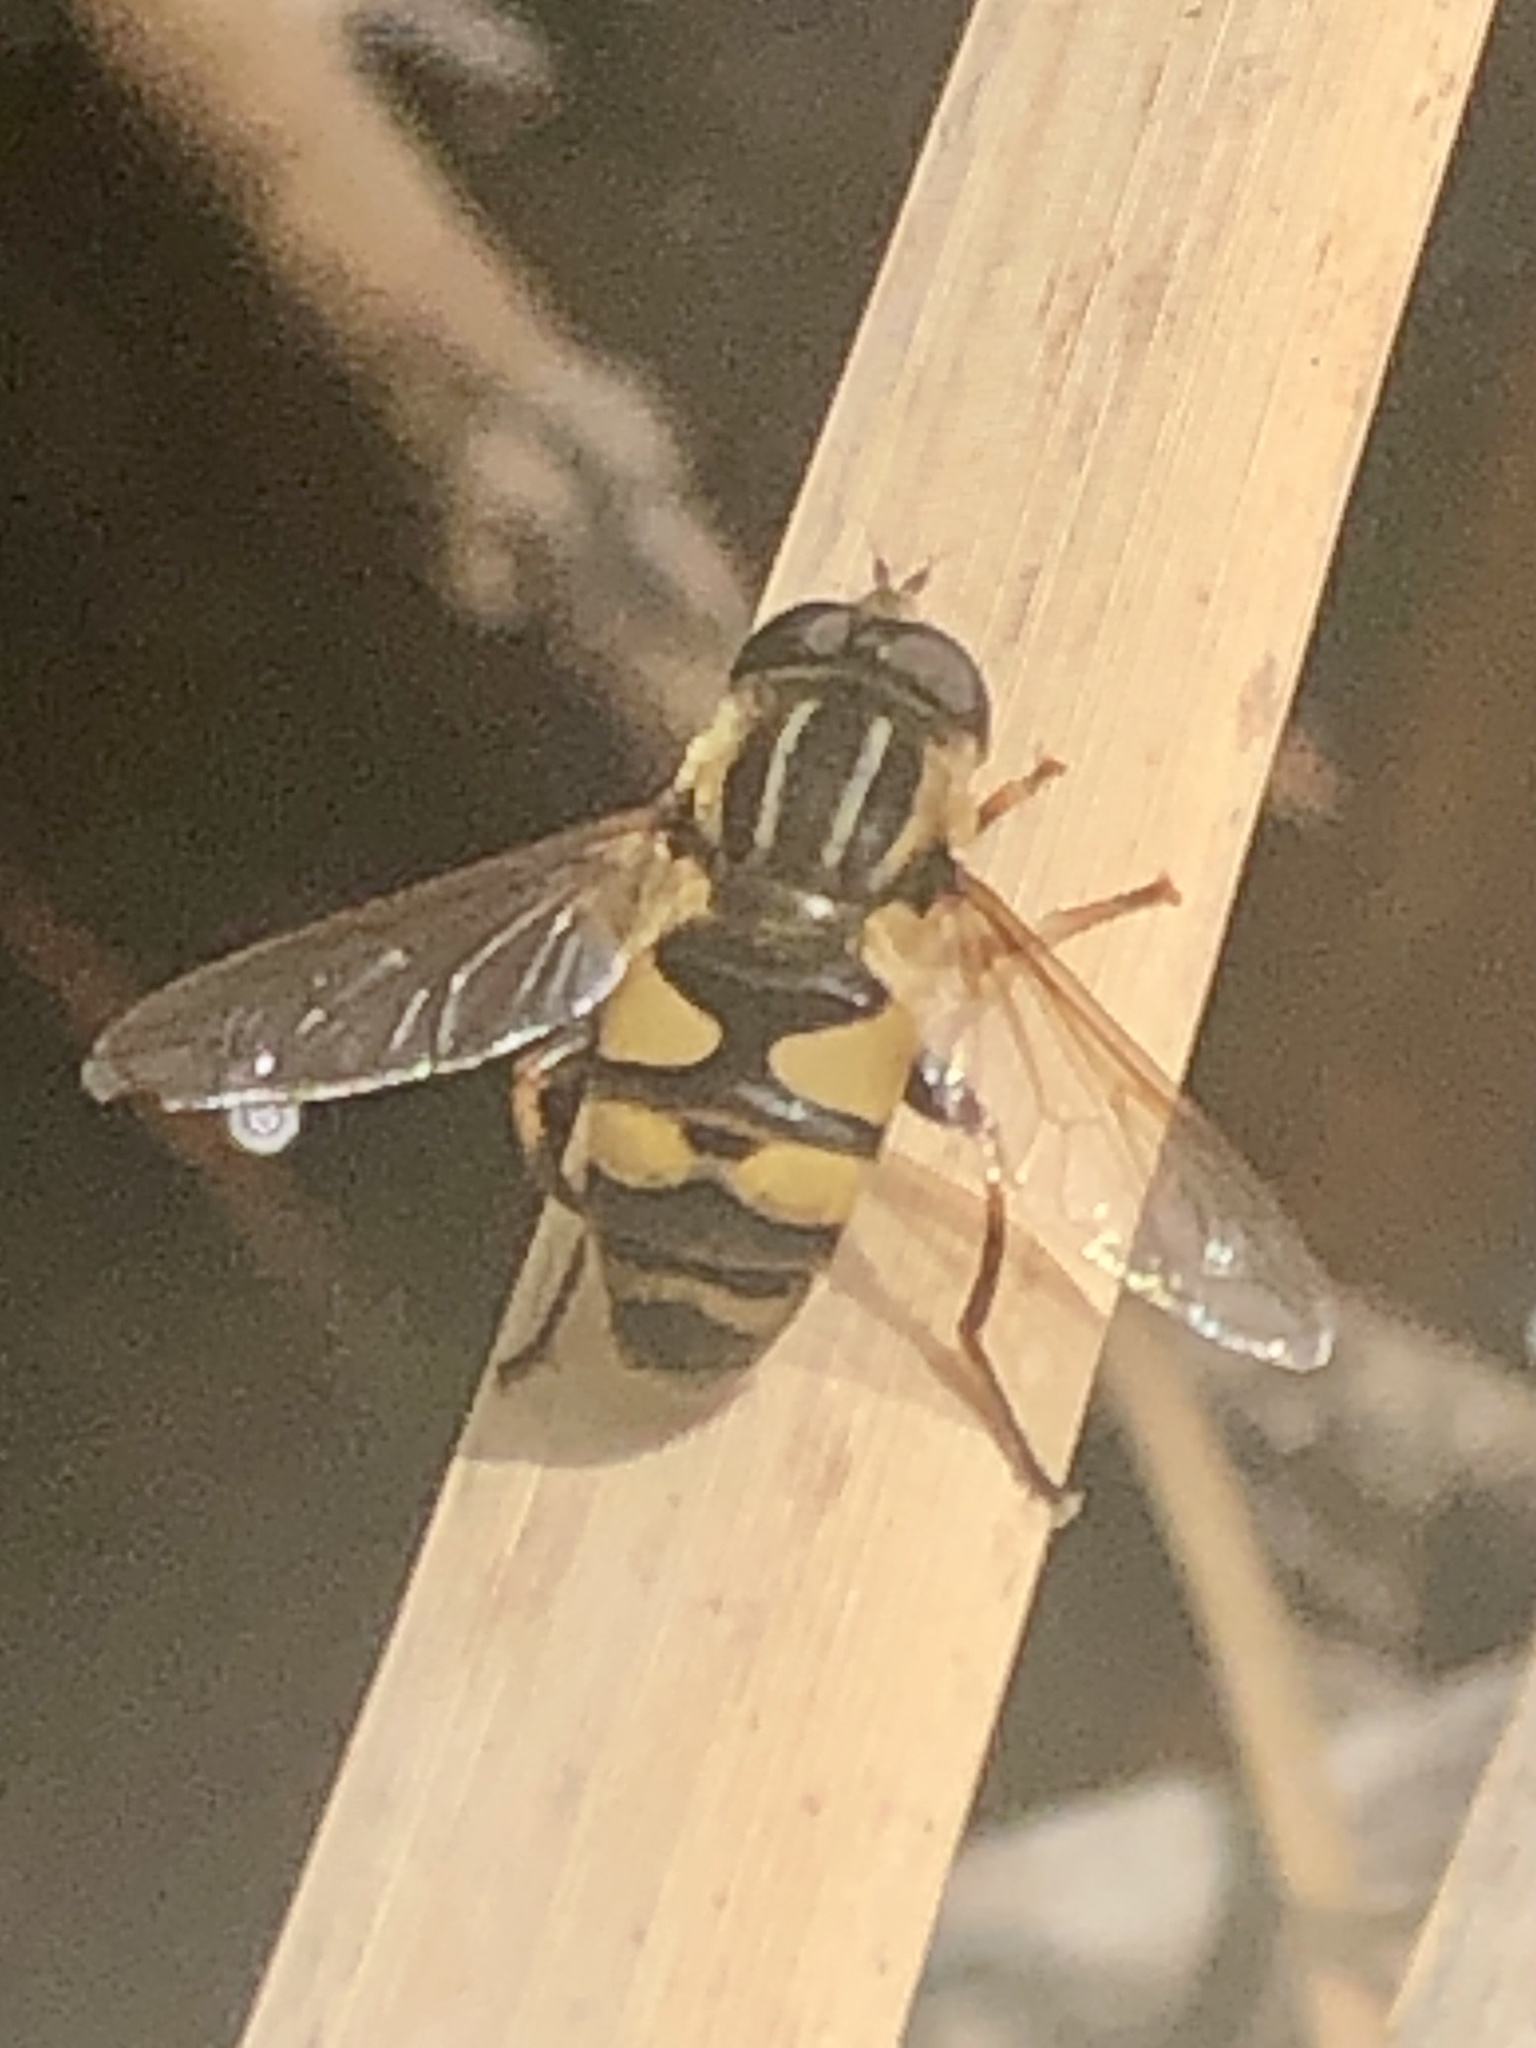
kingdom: Animalia
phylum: Arthropoda
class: Insecta
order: Diptera
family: Syrphidae
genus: Helophilus
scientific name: Helophilus fasciatus
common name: Narrow-headed marsh fly
